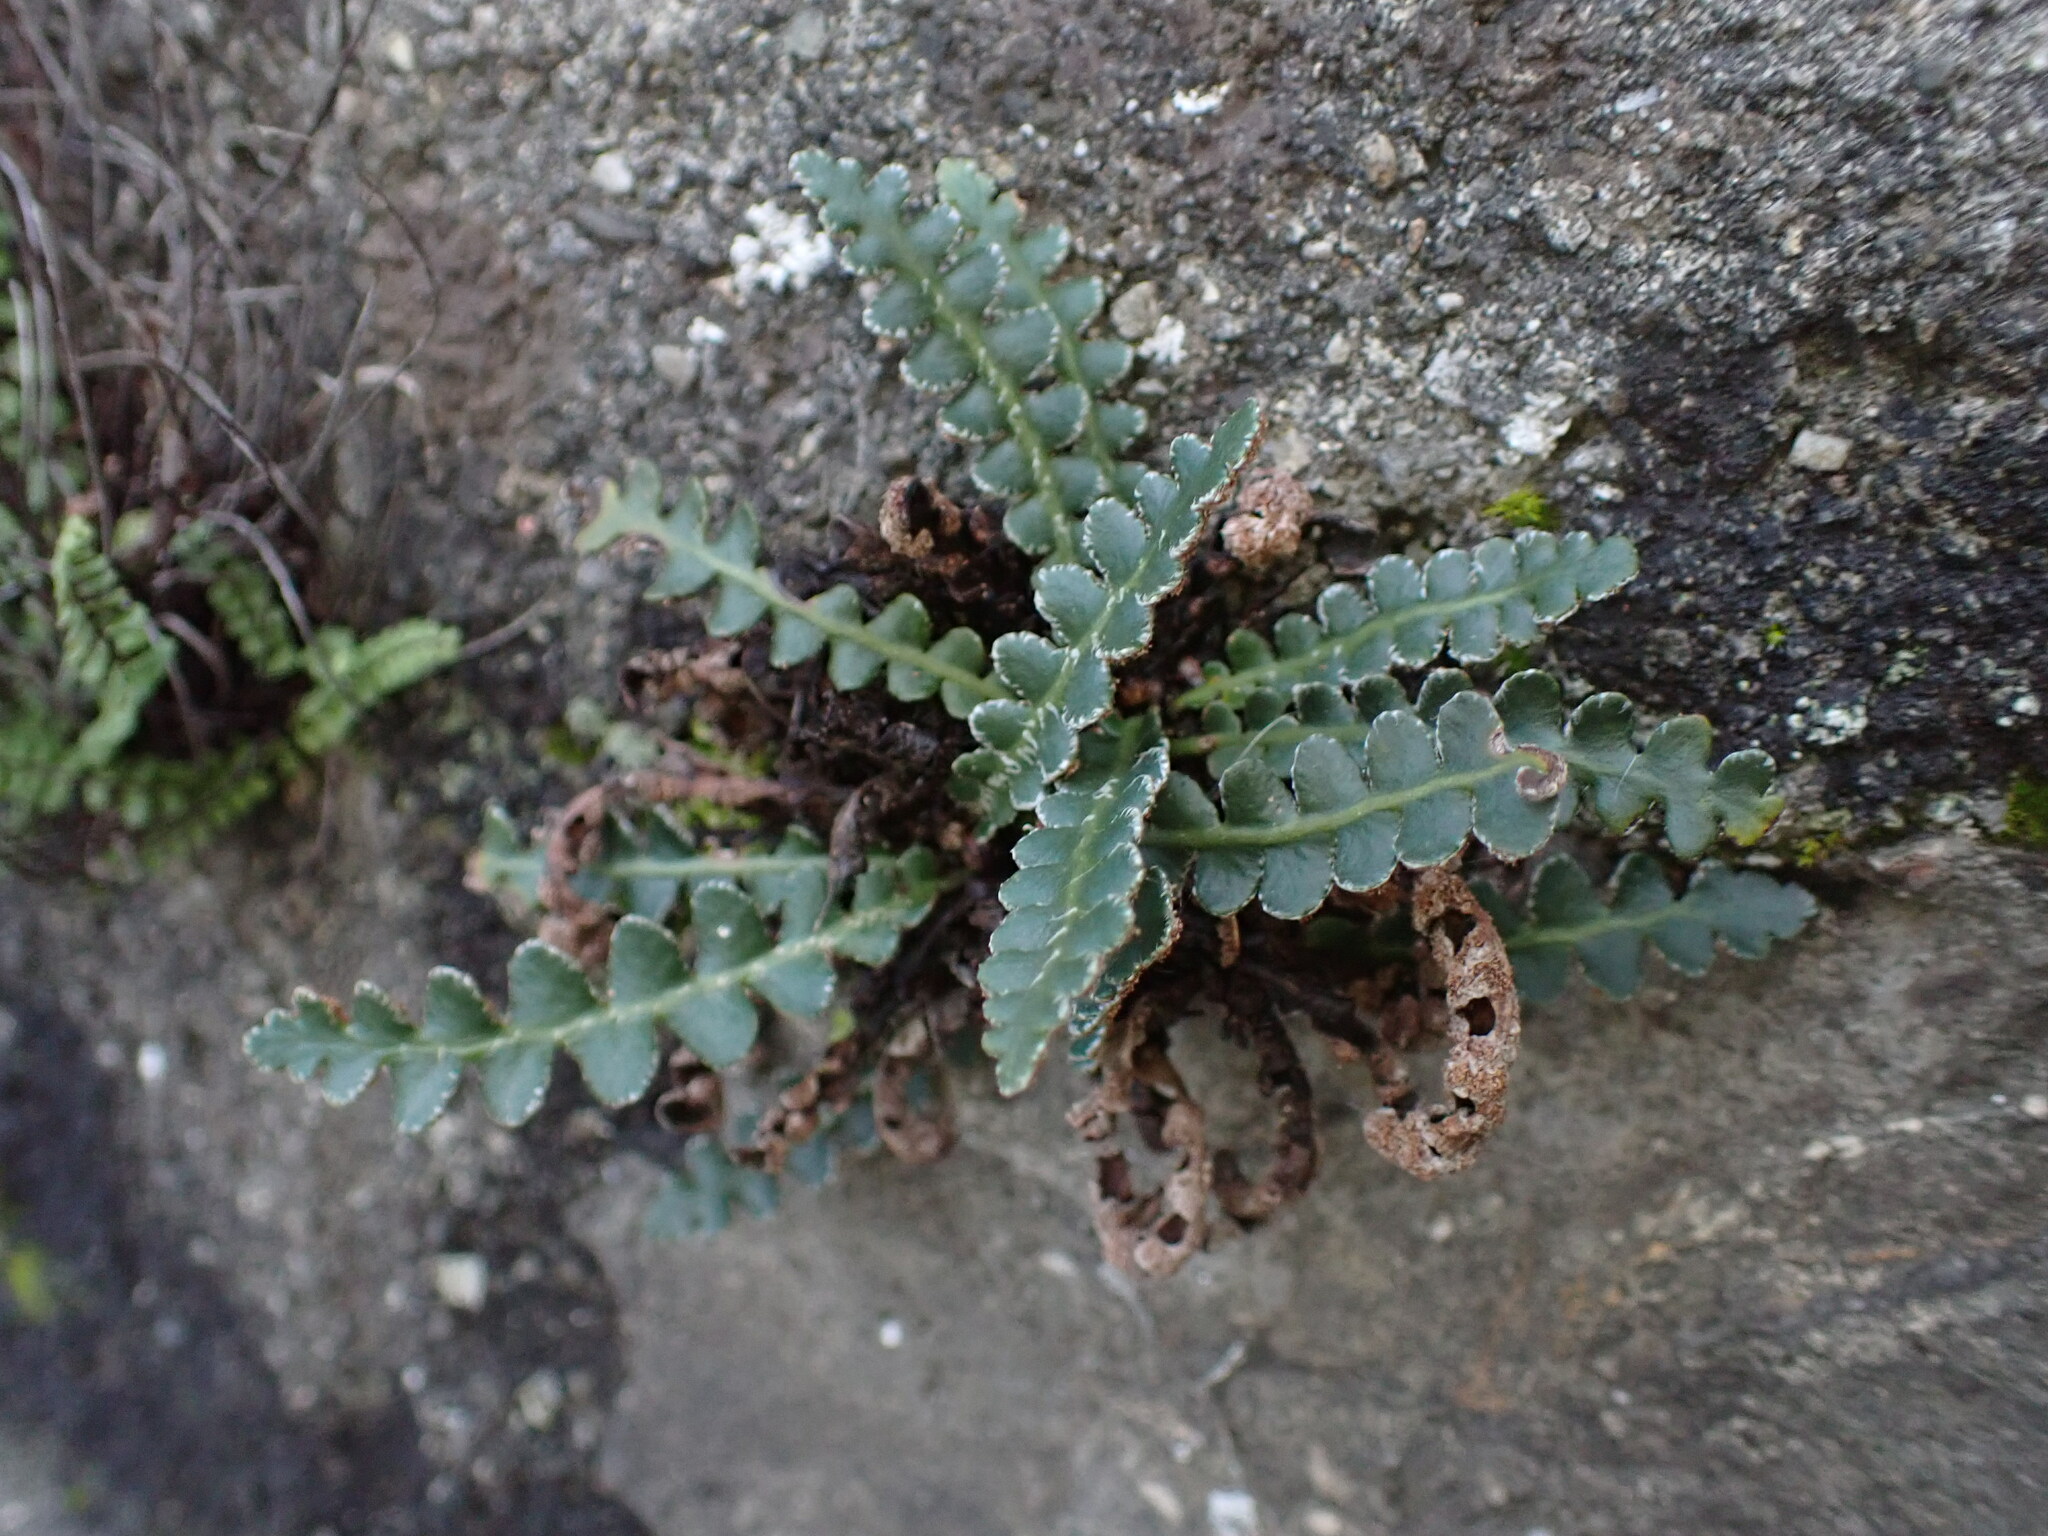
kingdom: Plantae
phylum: Tracheophyta
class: Polypodiopsida
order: Polypodiales
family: Aspleniaceae
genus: Asplenium
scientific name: Asplenium ceterach
